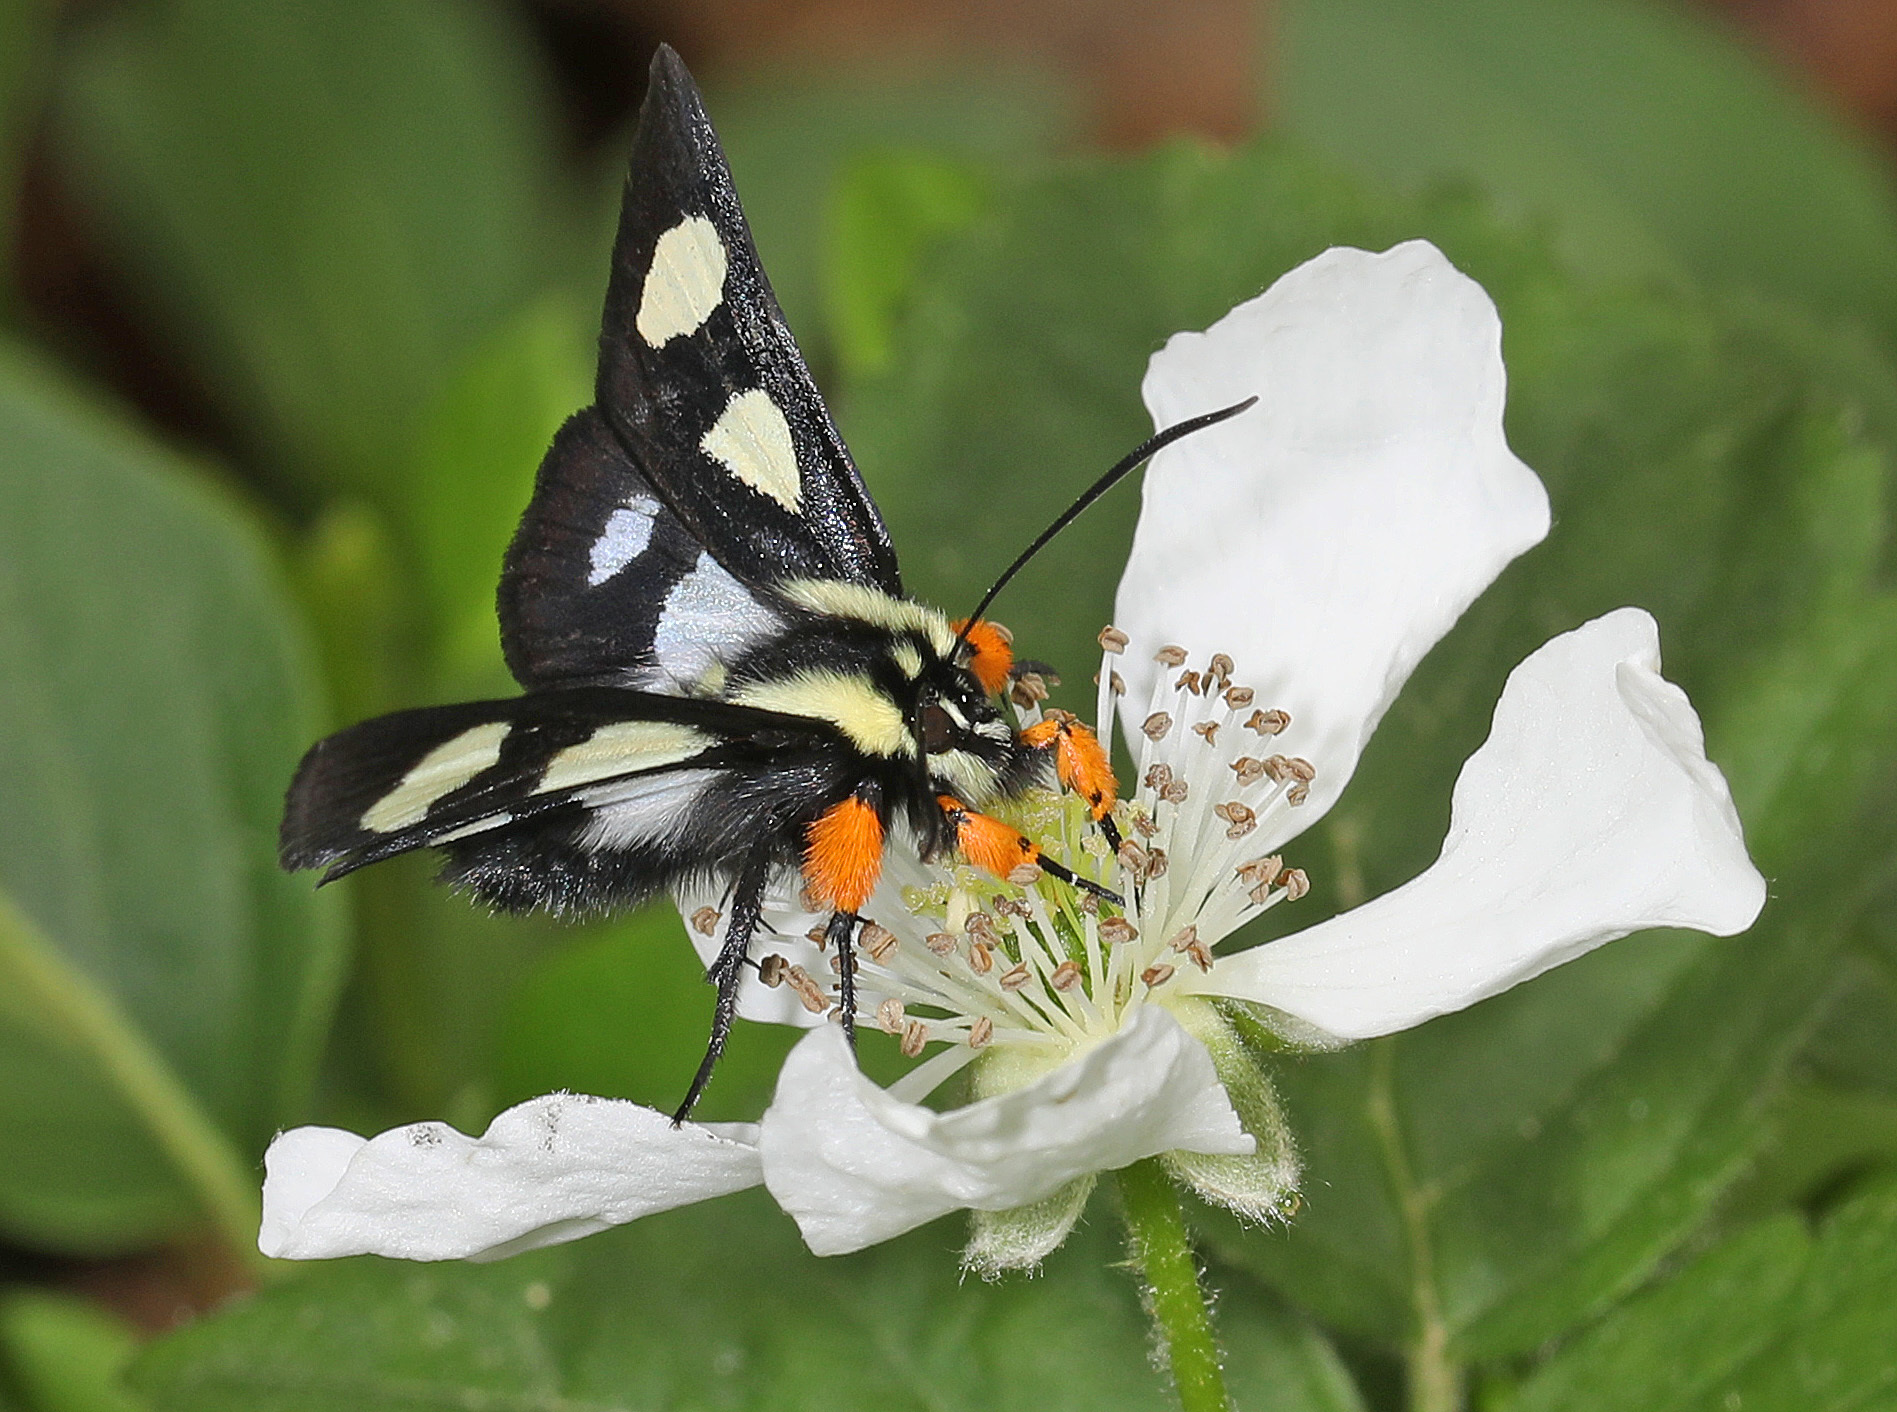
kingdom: Animalia
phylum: Arthropoda
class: Insecta
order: Lepidoptera
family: Noctuidae
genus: Alypia
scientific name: Alypia octomaculata
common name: Eight-spotted forester
